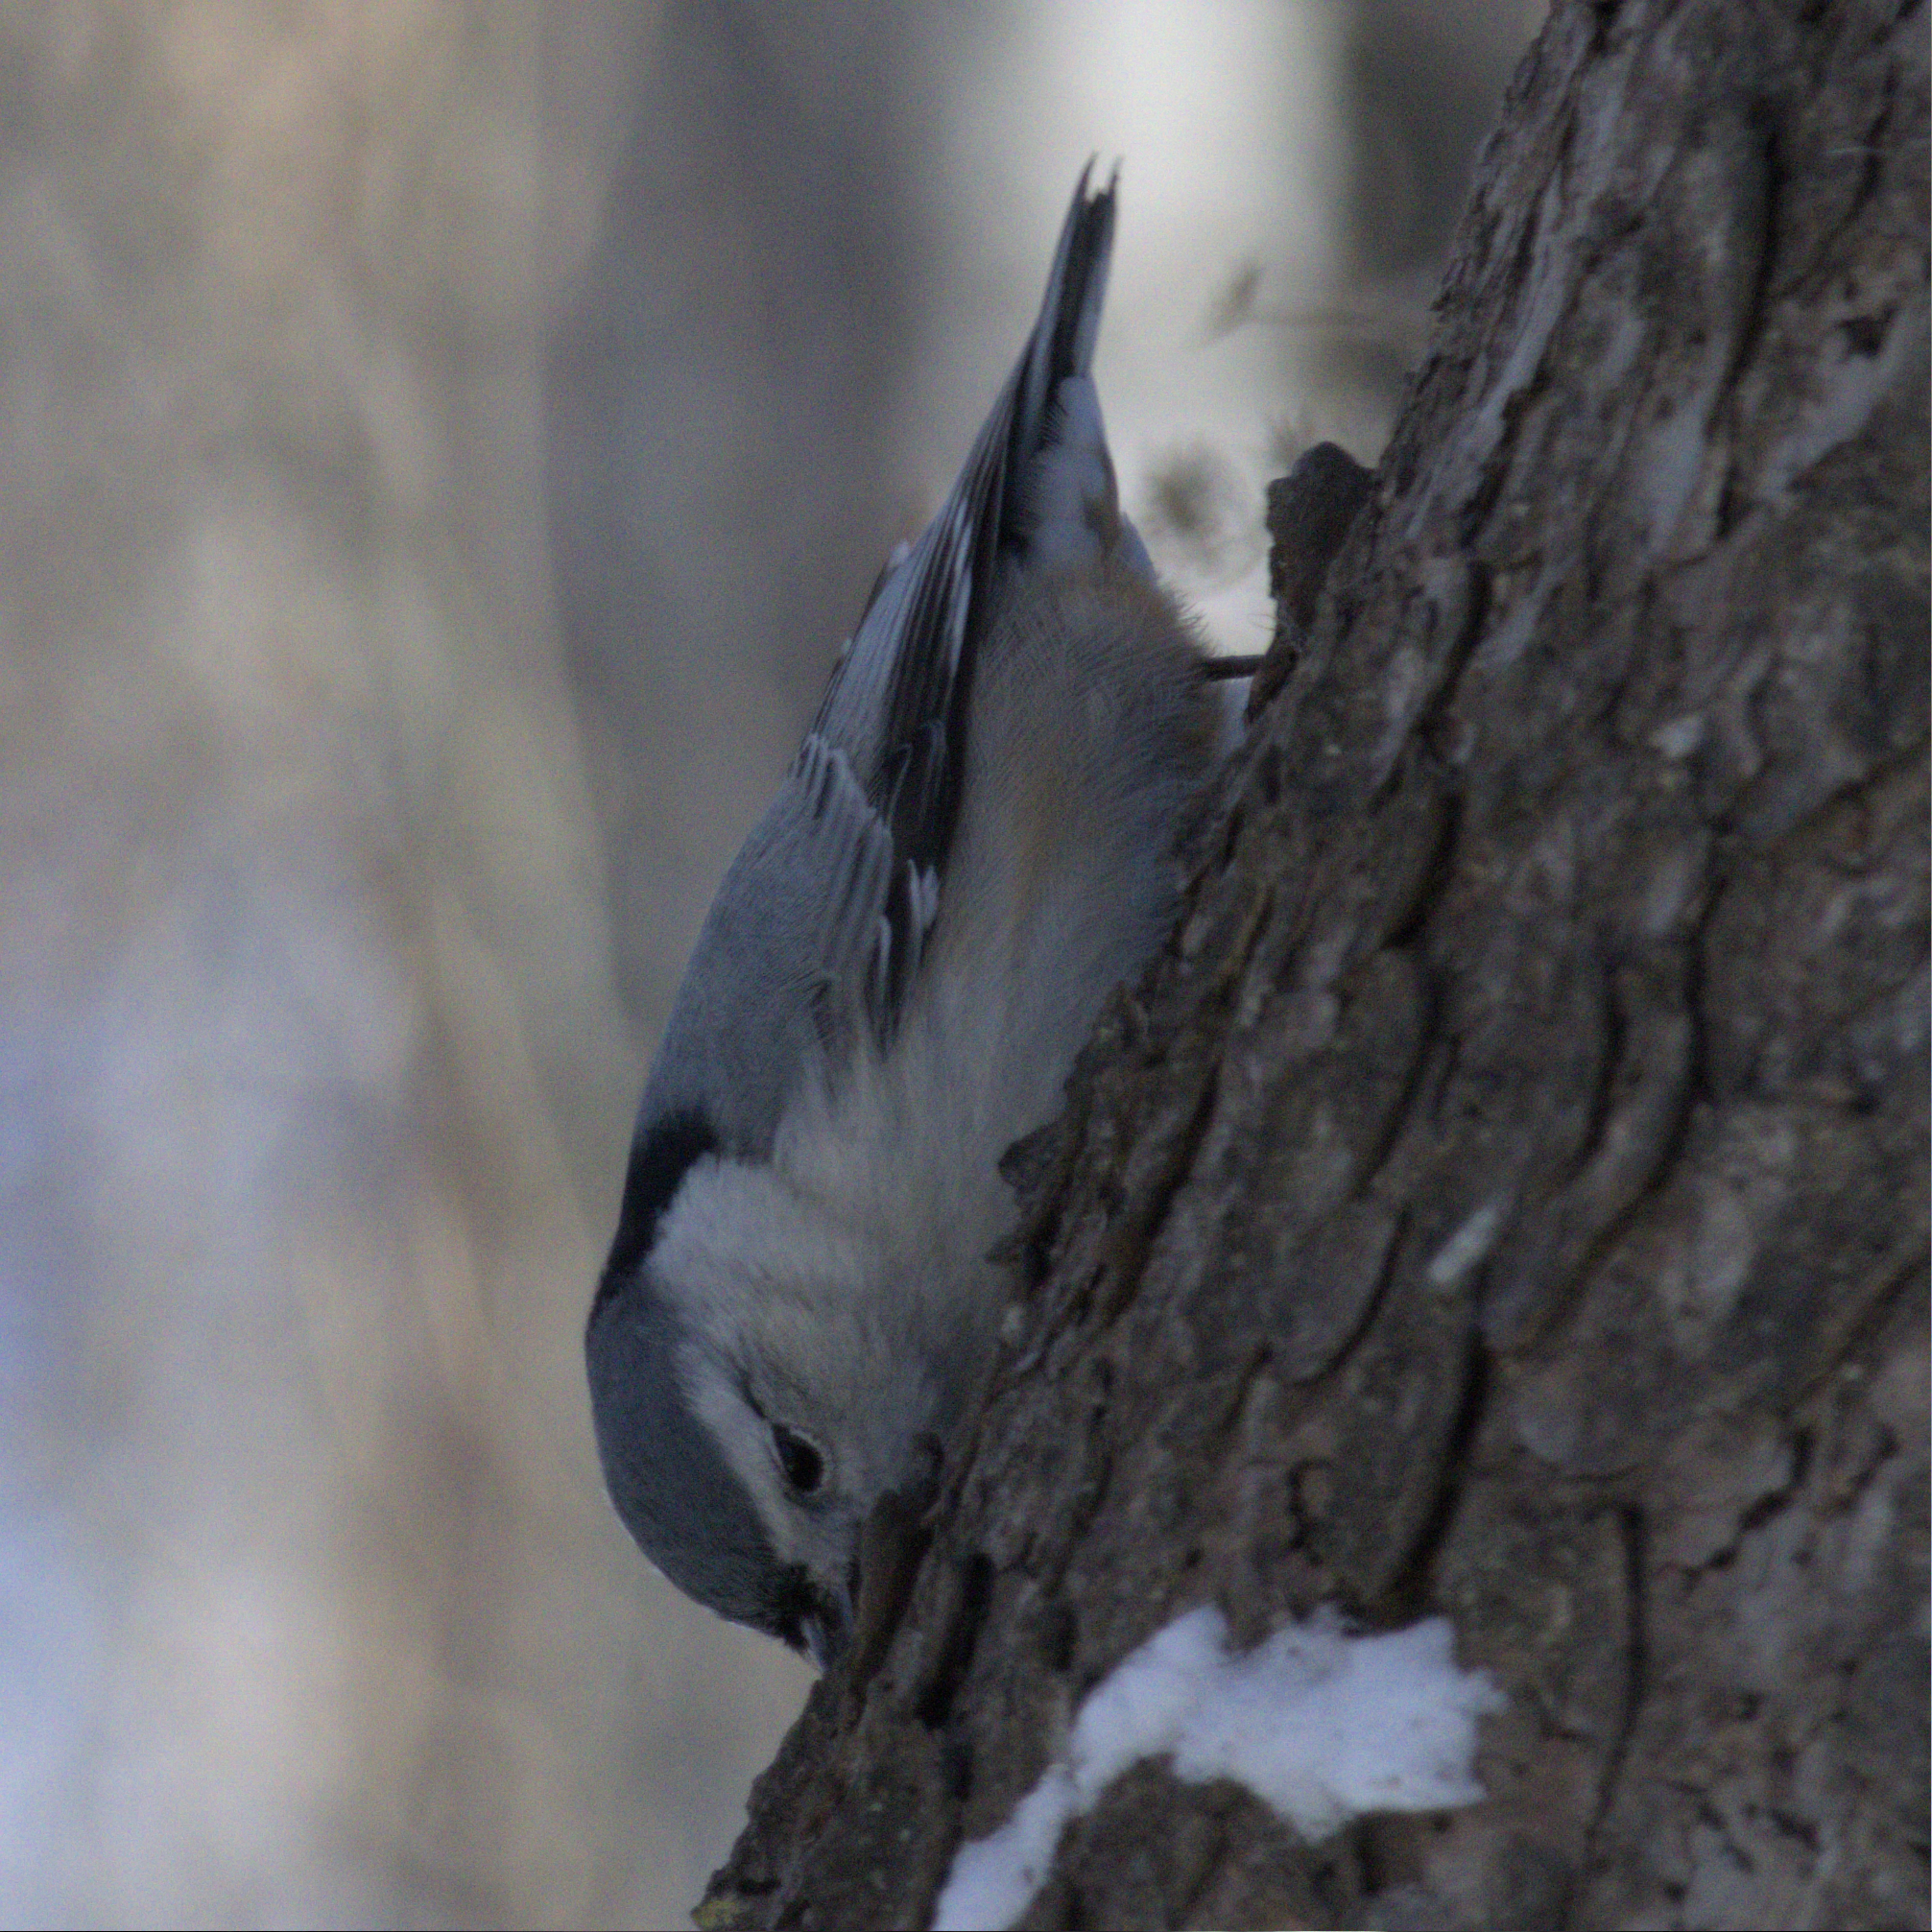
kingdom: Animalia
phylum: Chordata
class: Aves
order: Passeriformes
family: Sittidae
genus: Sitta
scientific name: Sitta carolinensis
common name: White-breasted nuthatch
